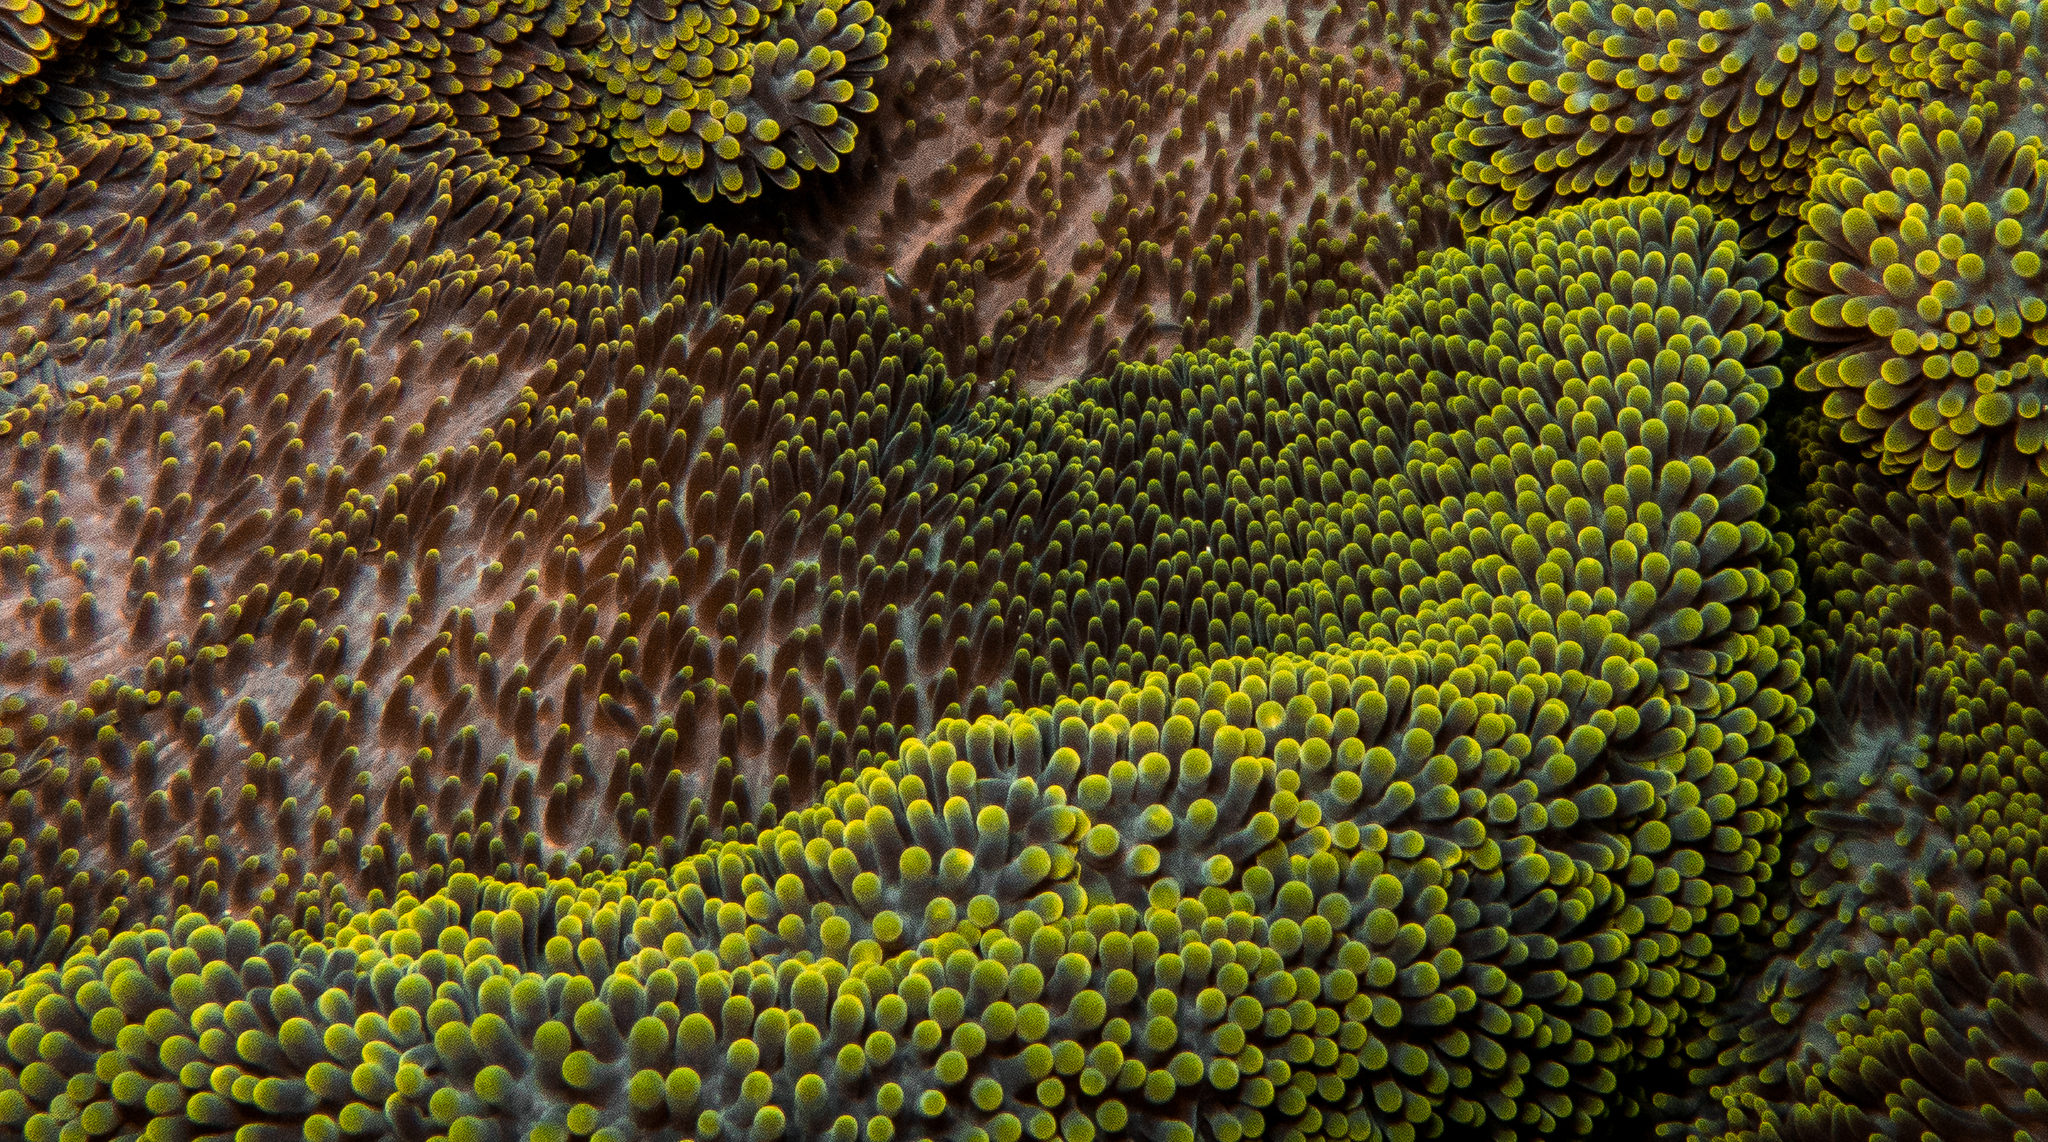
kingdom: Animalia
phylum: Cnidaria
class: Anthozoa
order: Actiniaria
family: Stichodactylidae
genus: Stichodactyla
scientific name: Stichodactyla haddoni
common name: Haddon's sea anemone
